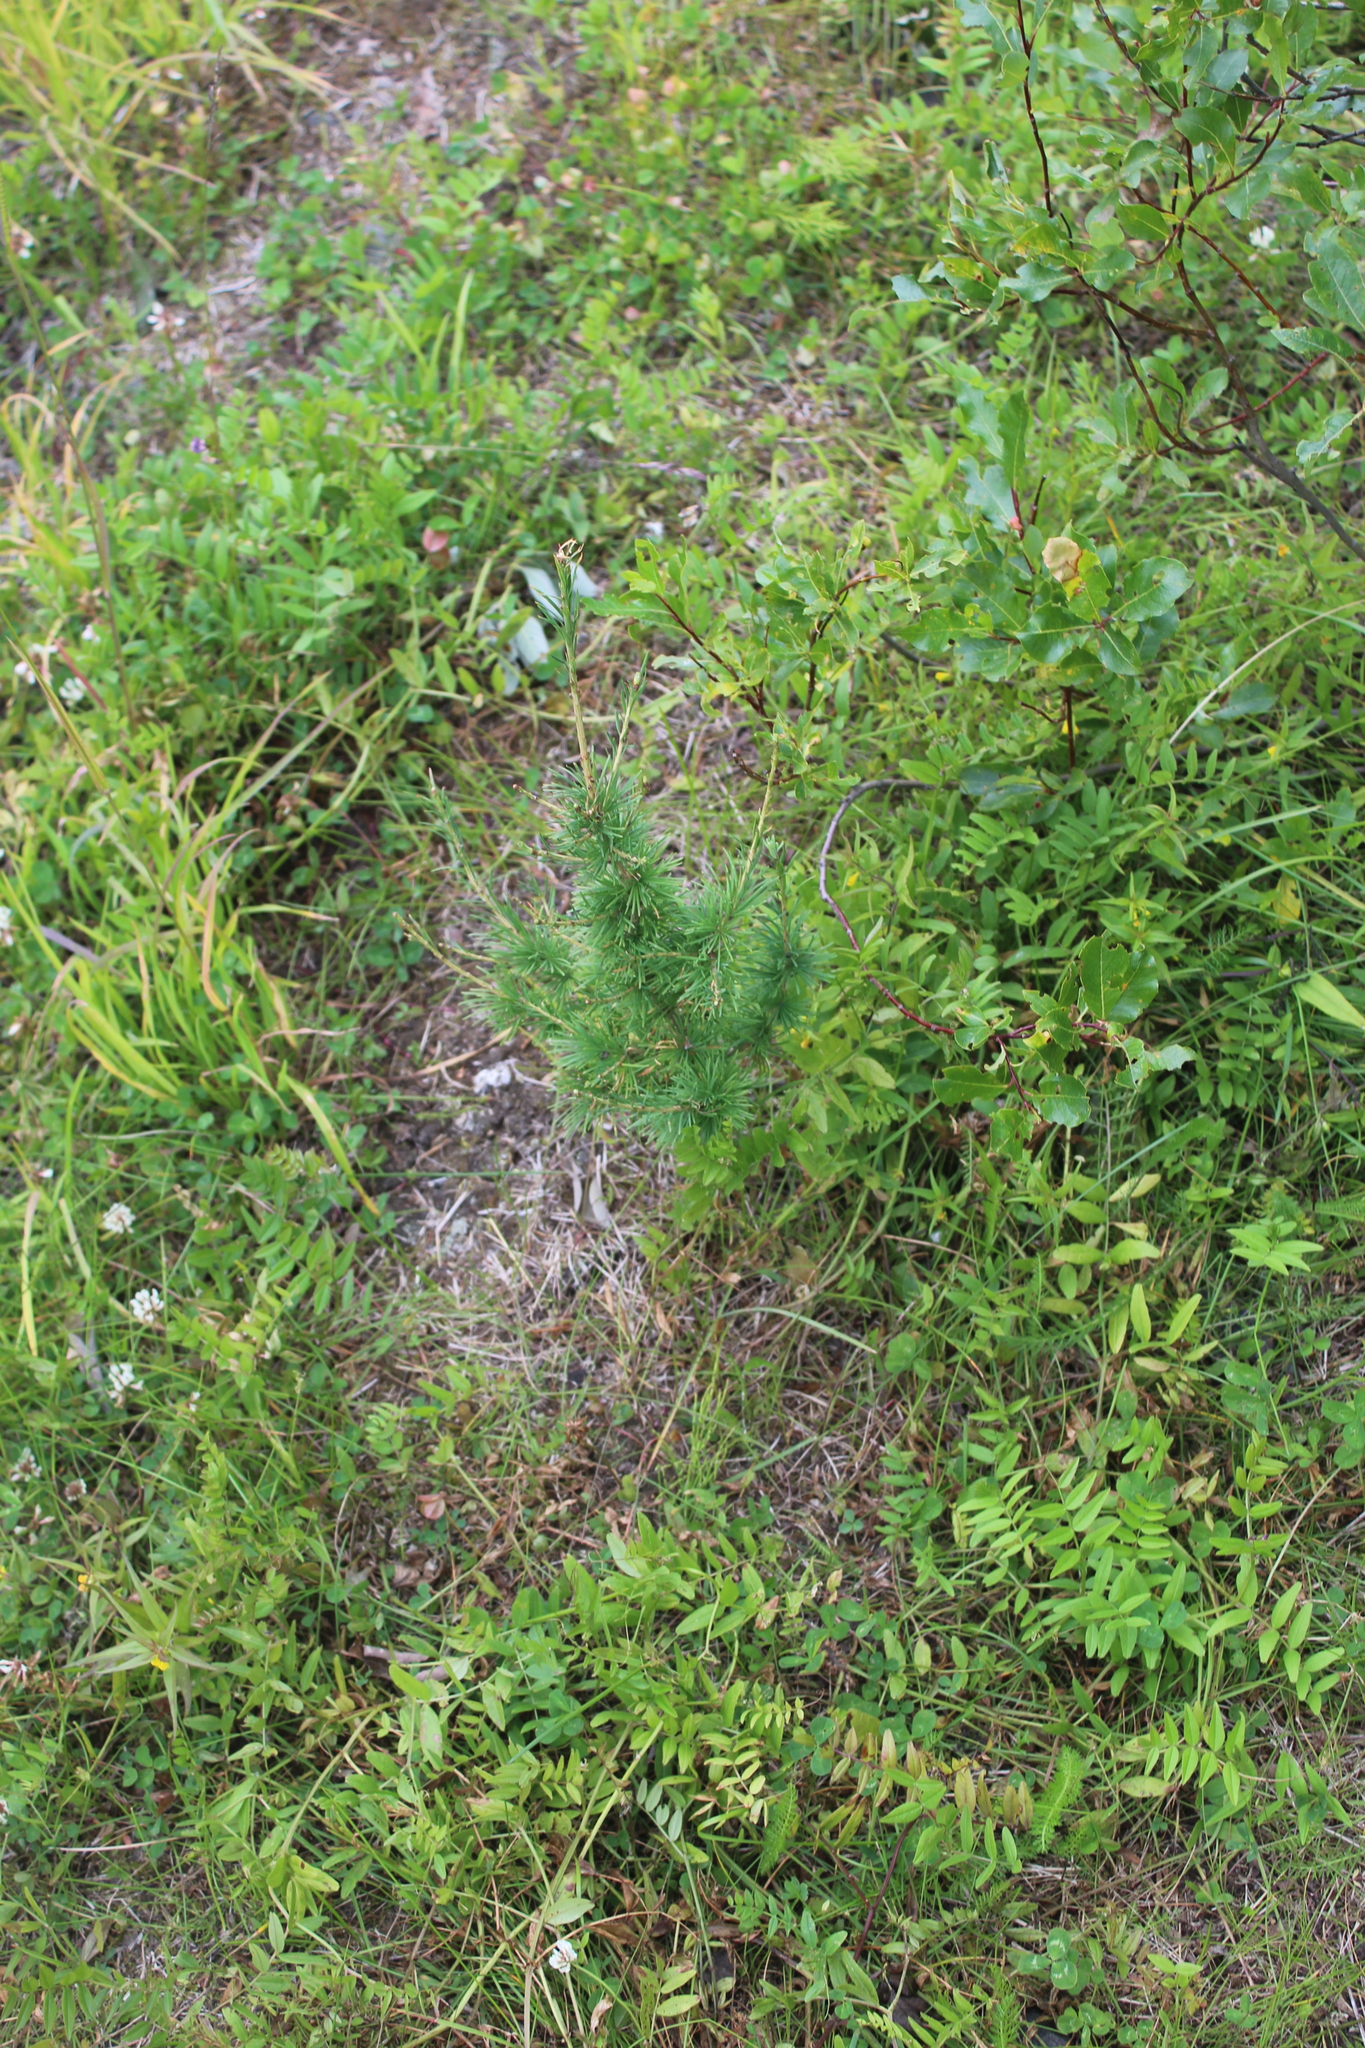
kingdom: Plantae
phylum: Tracheophyta
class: Pinopsida
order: Pinales
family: Pinaceae
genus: Larix
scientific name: Larix sibirica
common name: Siberian larch
